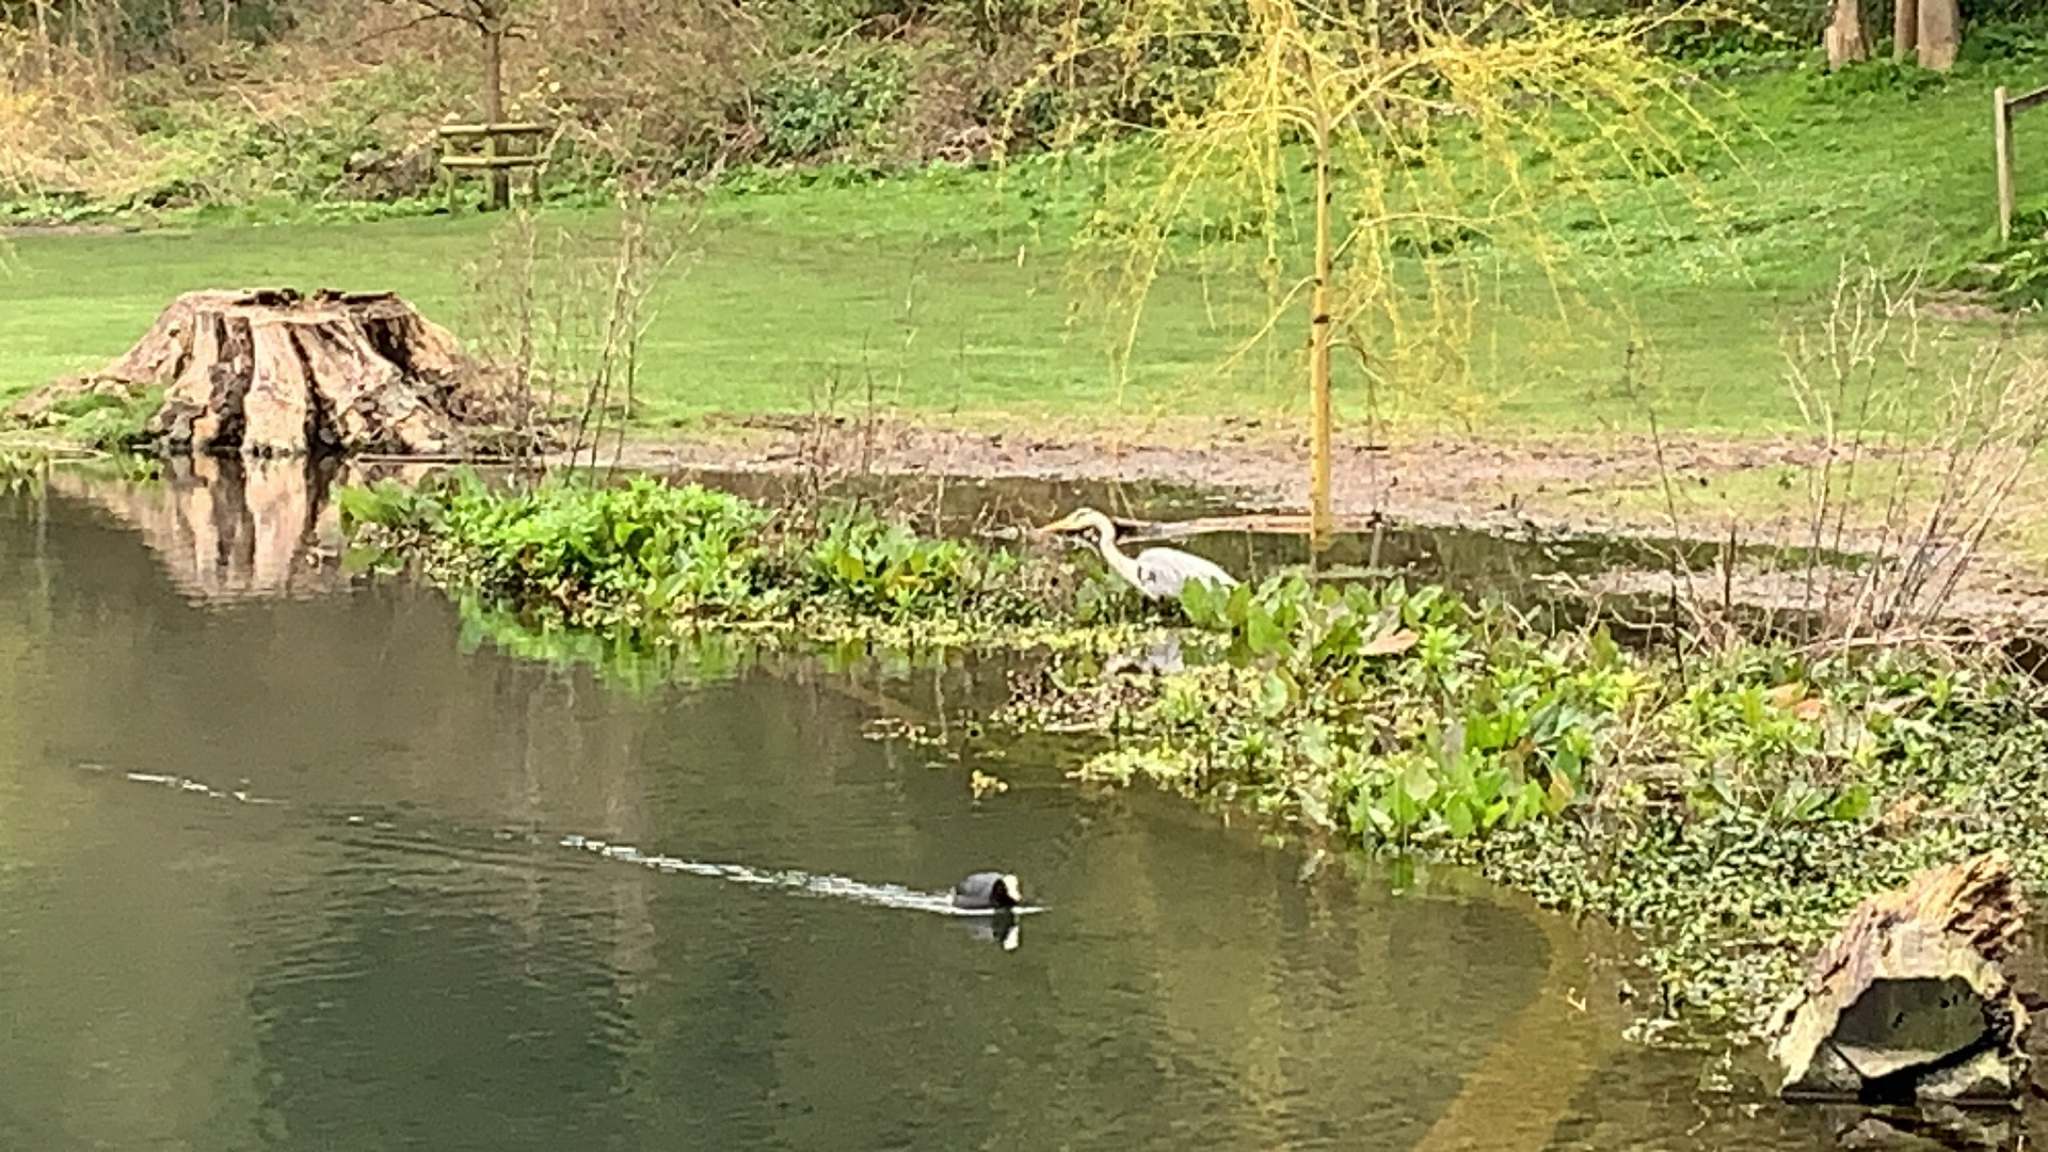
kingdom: Animalia
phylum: Chordata
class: Aves
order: Pelecaniformes
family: Ardeidae
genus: Ardea
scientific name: Ardea cinerea
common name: Grey heron
